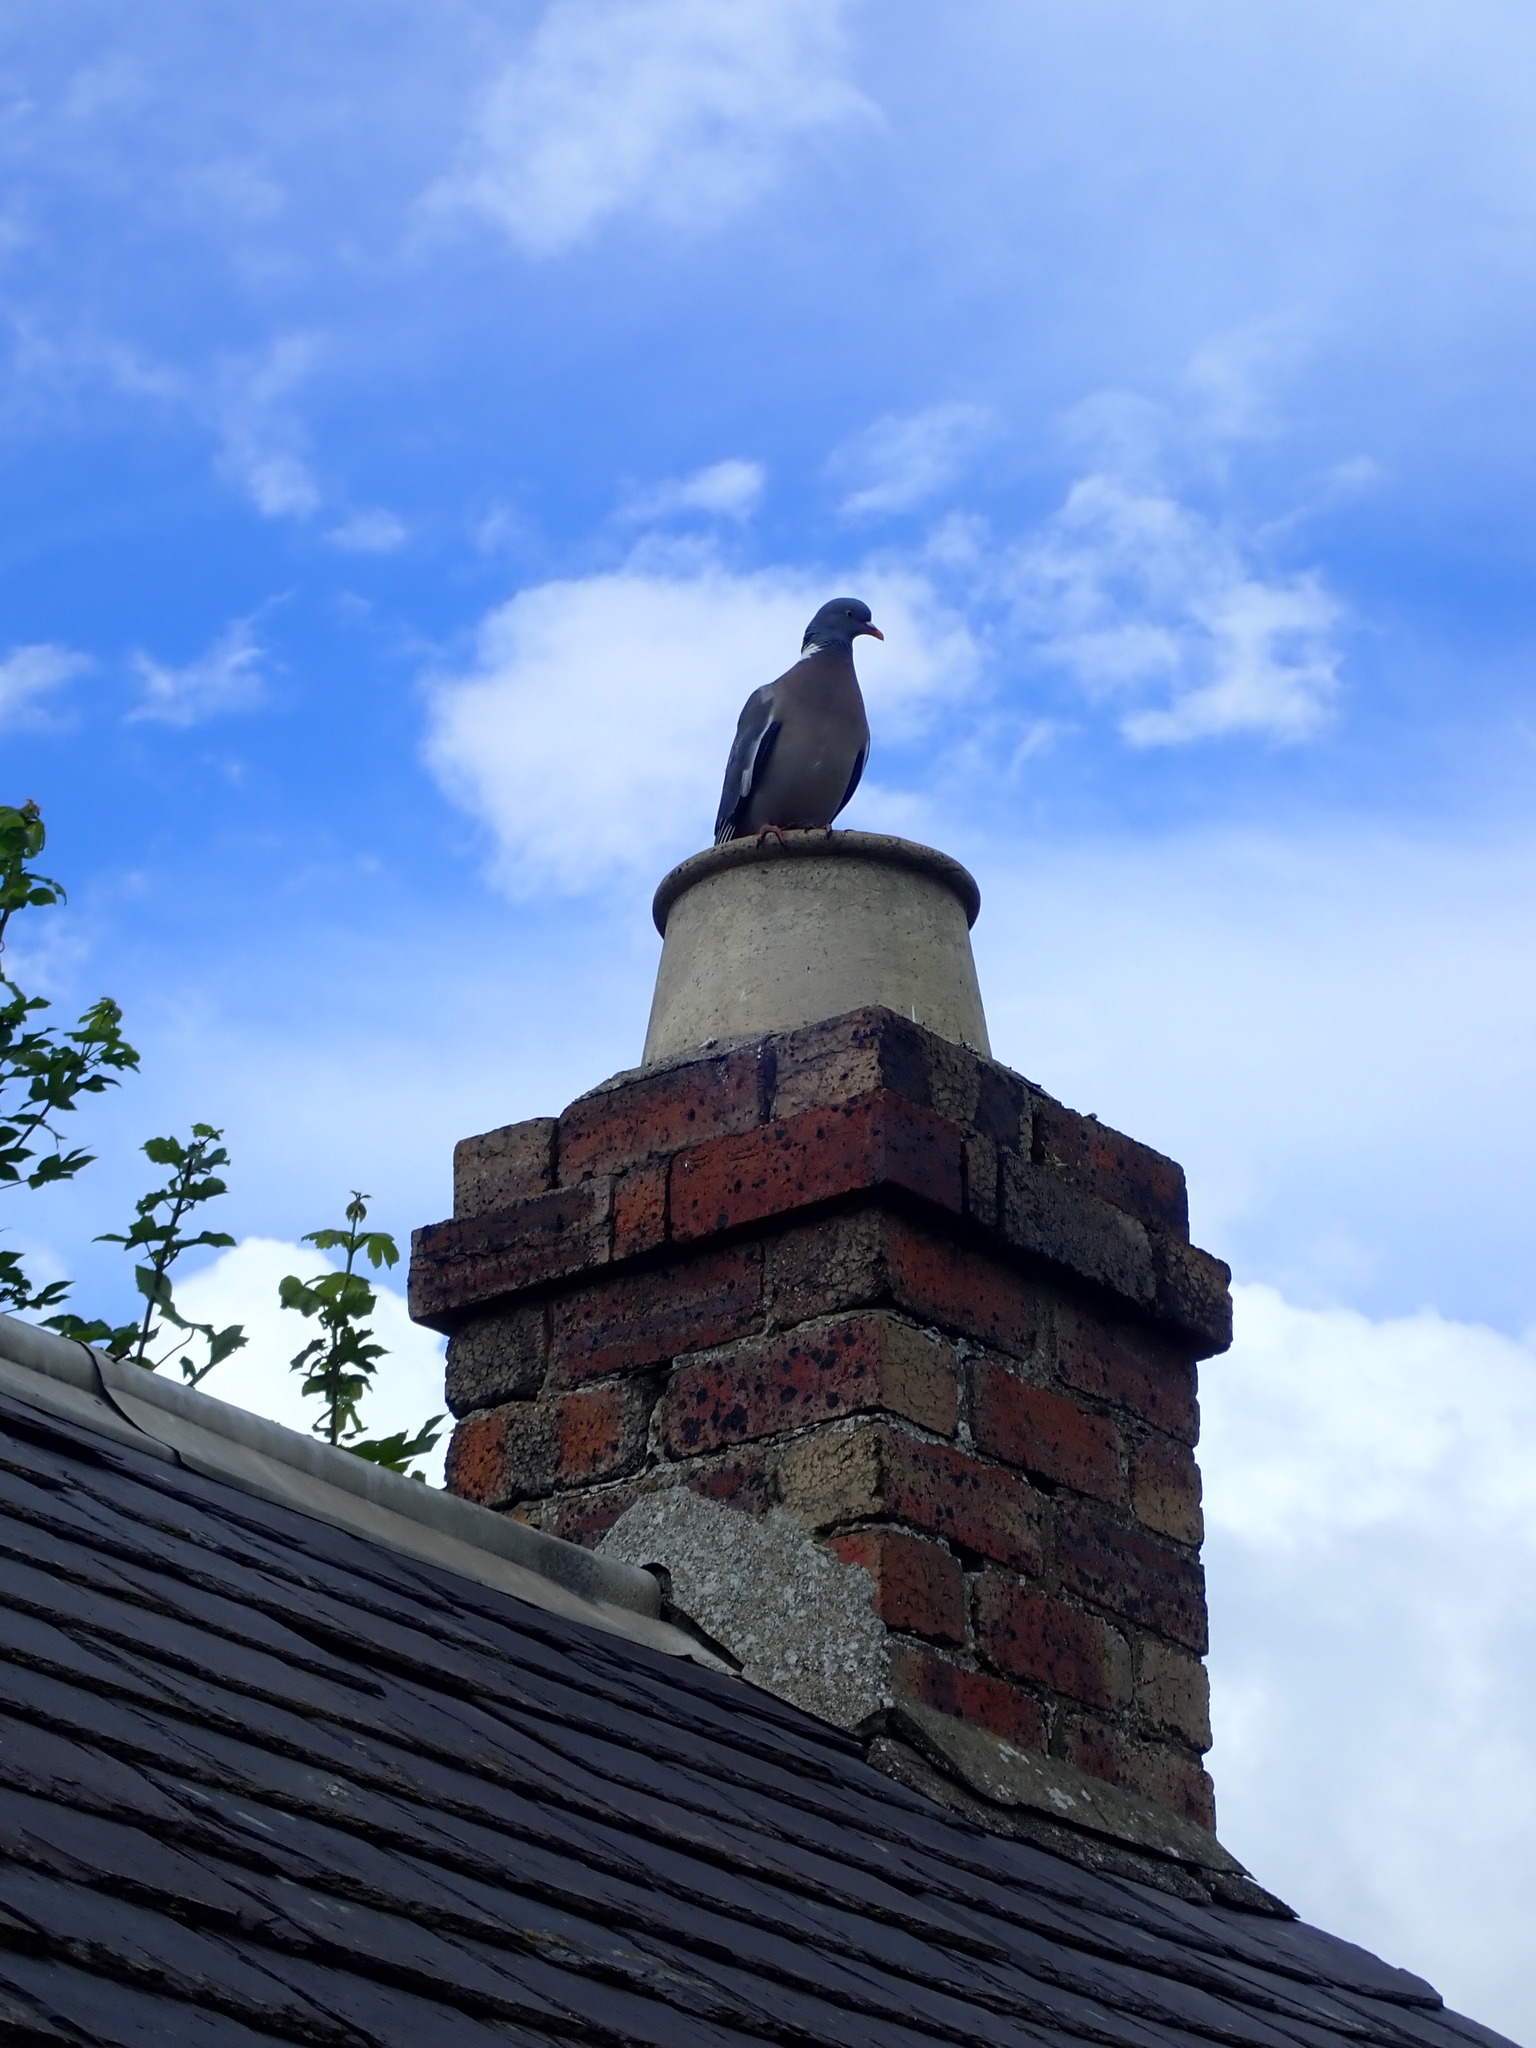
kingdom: Animalia
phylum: Chordata
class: Aves
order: Columbiformes
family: Columbidae
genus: Columba
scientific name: Columba palumbus
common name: Common wood pigeon
